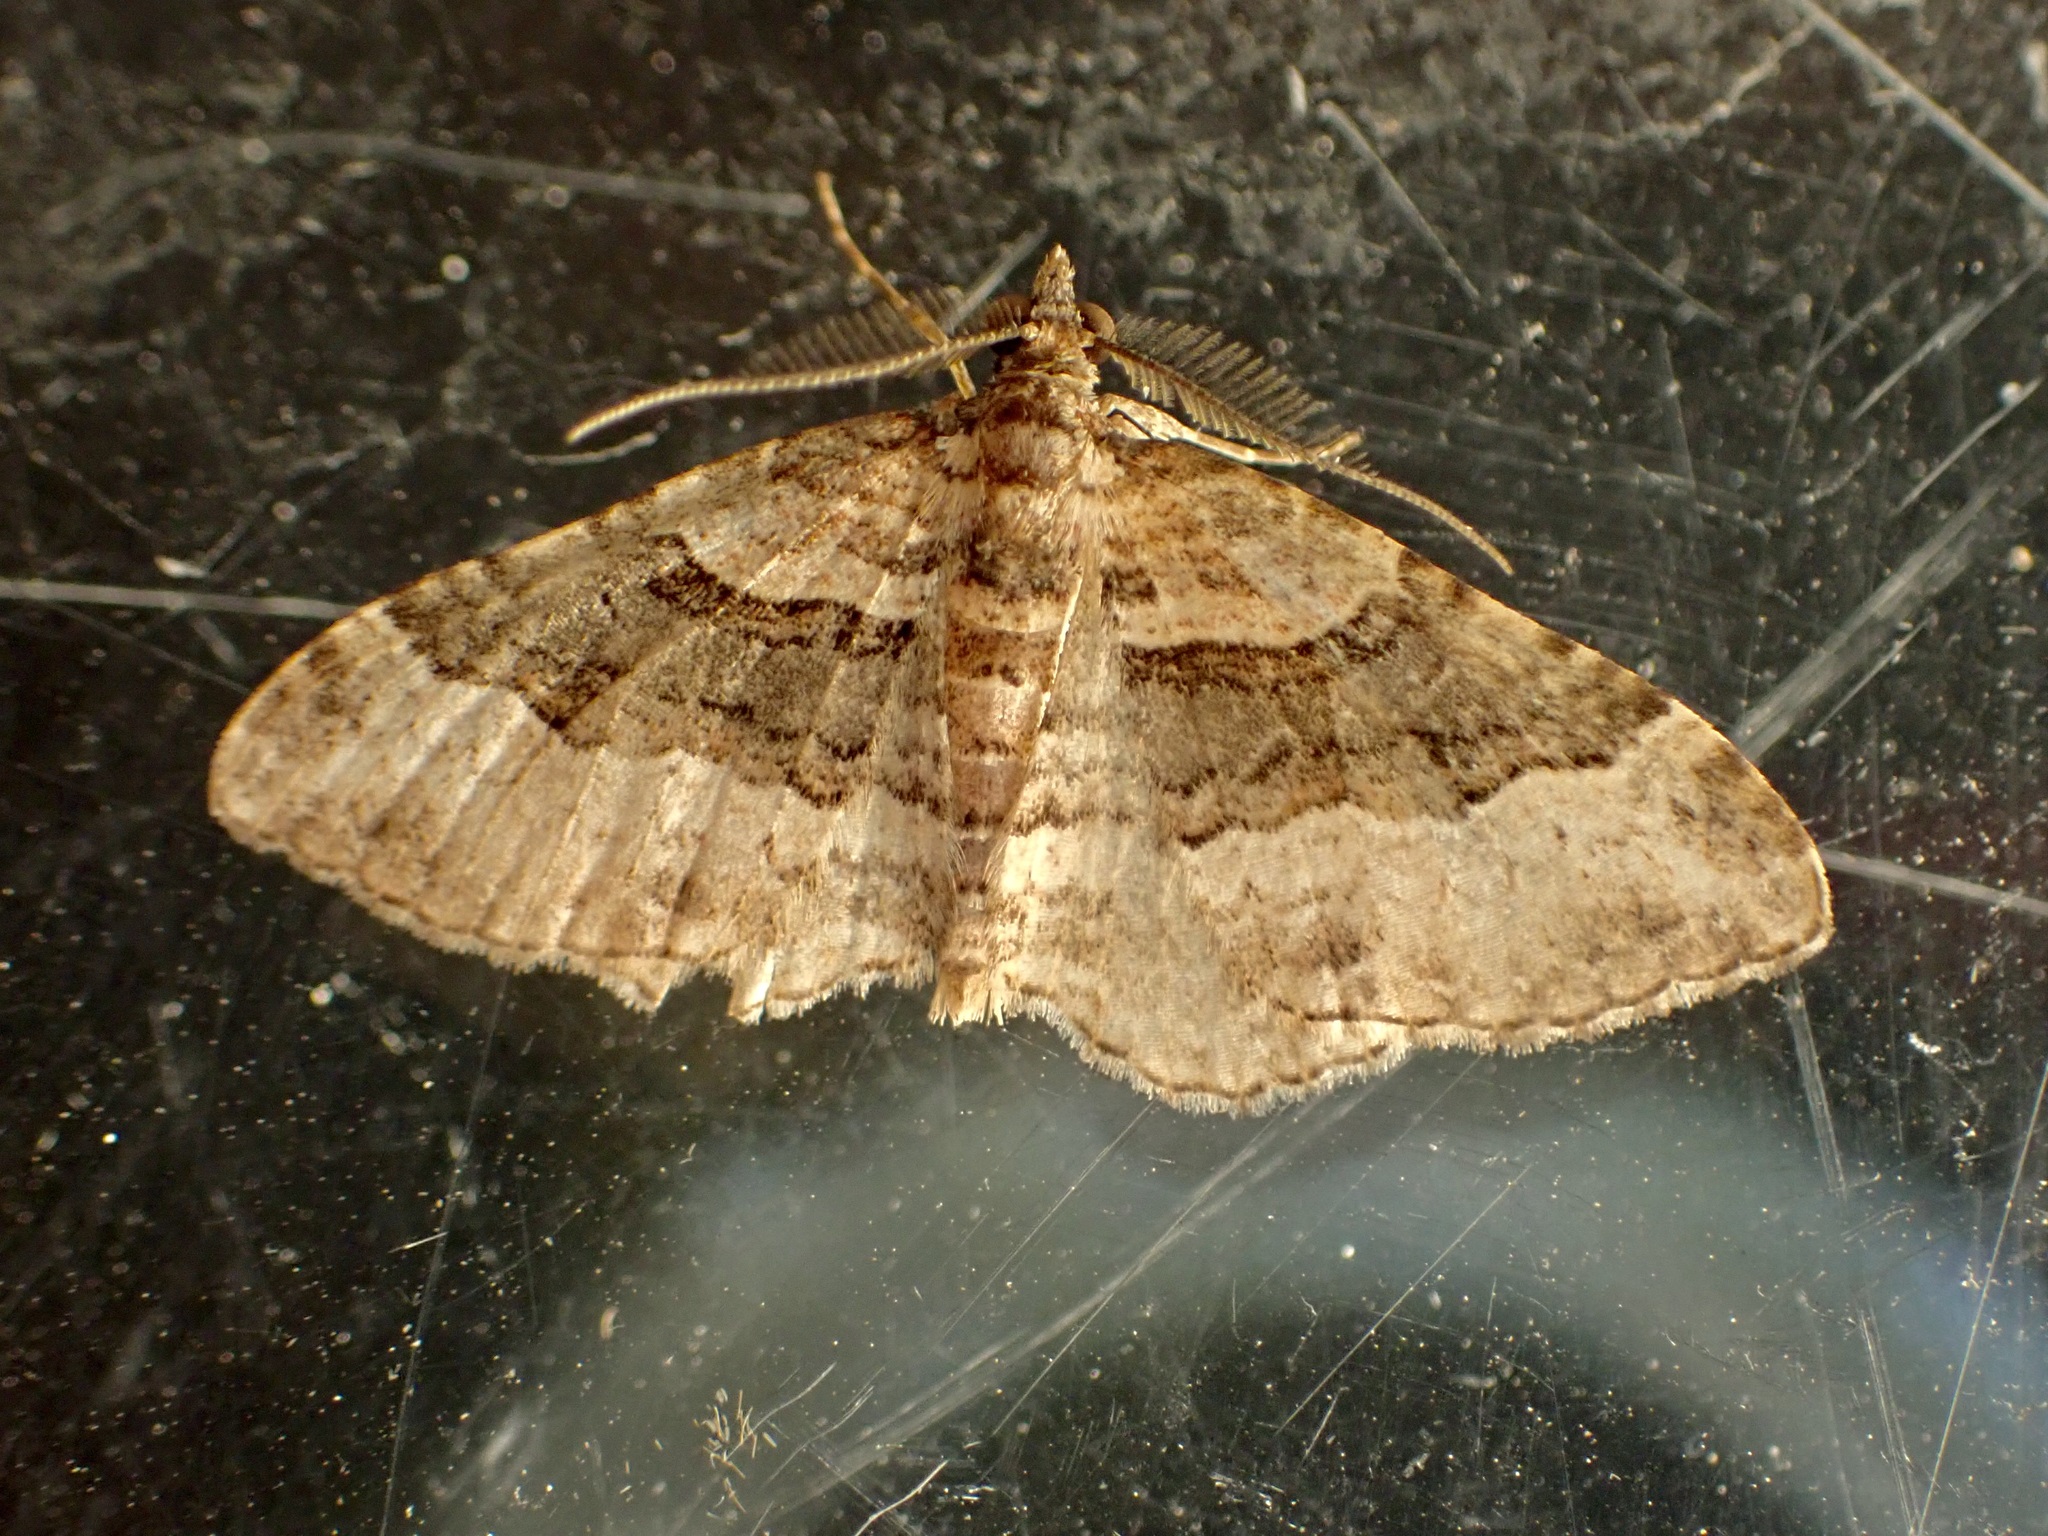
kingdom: Animalia
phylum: Arthropoda
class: Insecta
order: Lepidoptera
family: Geometridae
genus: Epyaxa
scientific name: Epyaxa lucidata
